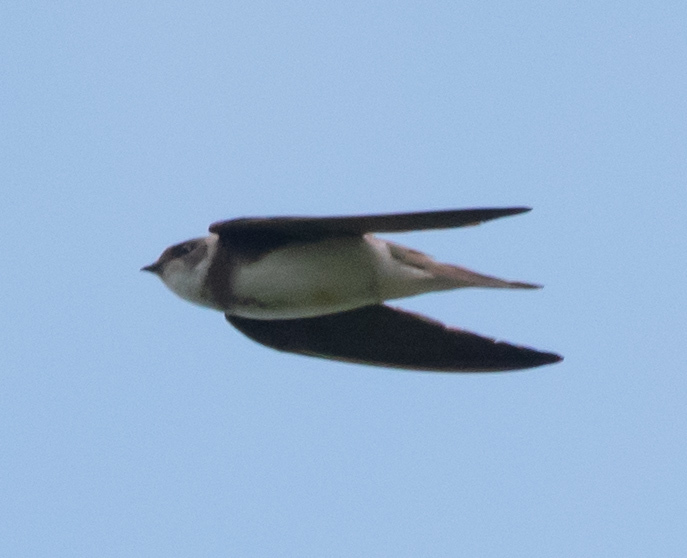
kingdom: Animalia
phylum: Chordata
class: Aves
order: Passeriformes
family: Hirundinidae
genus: Riparia
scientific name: Riparia riparia
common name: Sand martin
